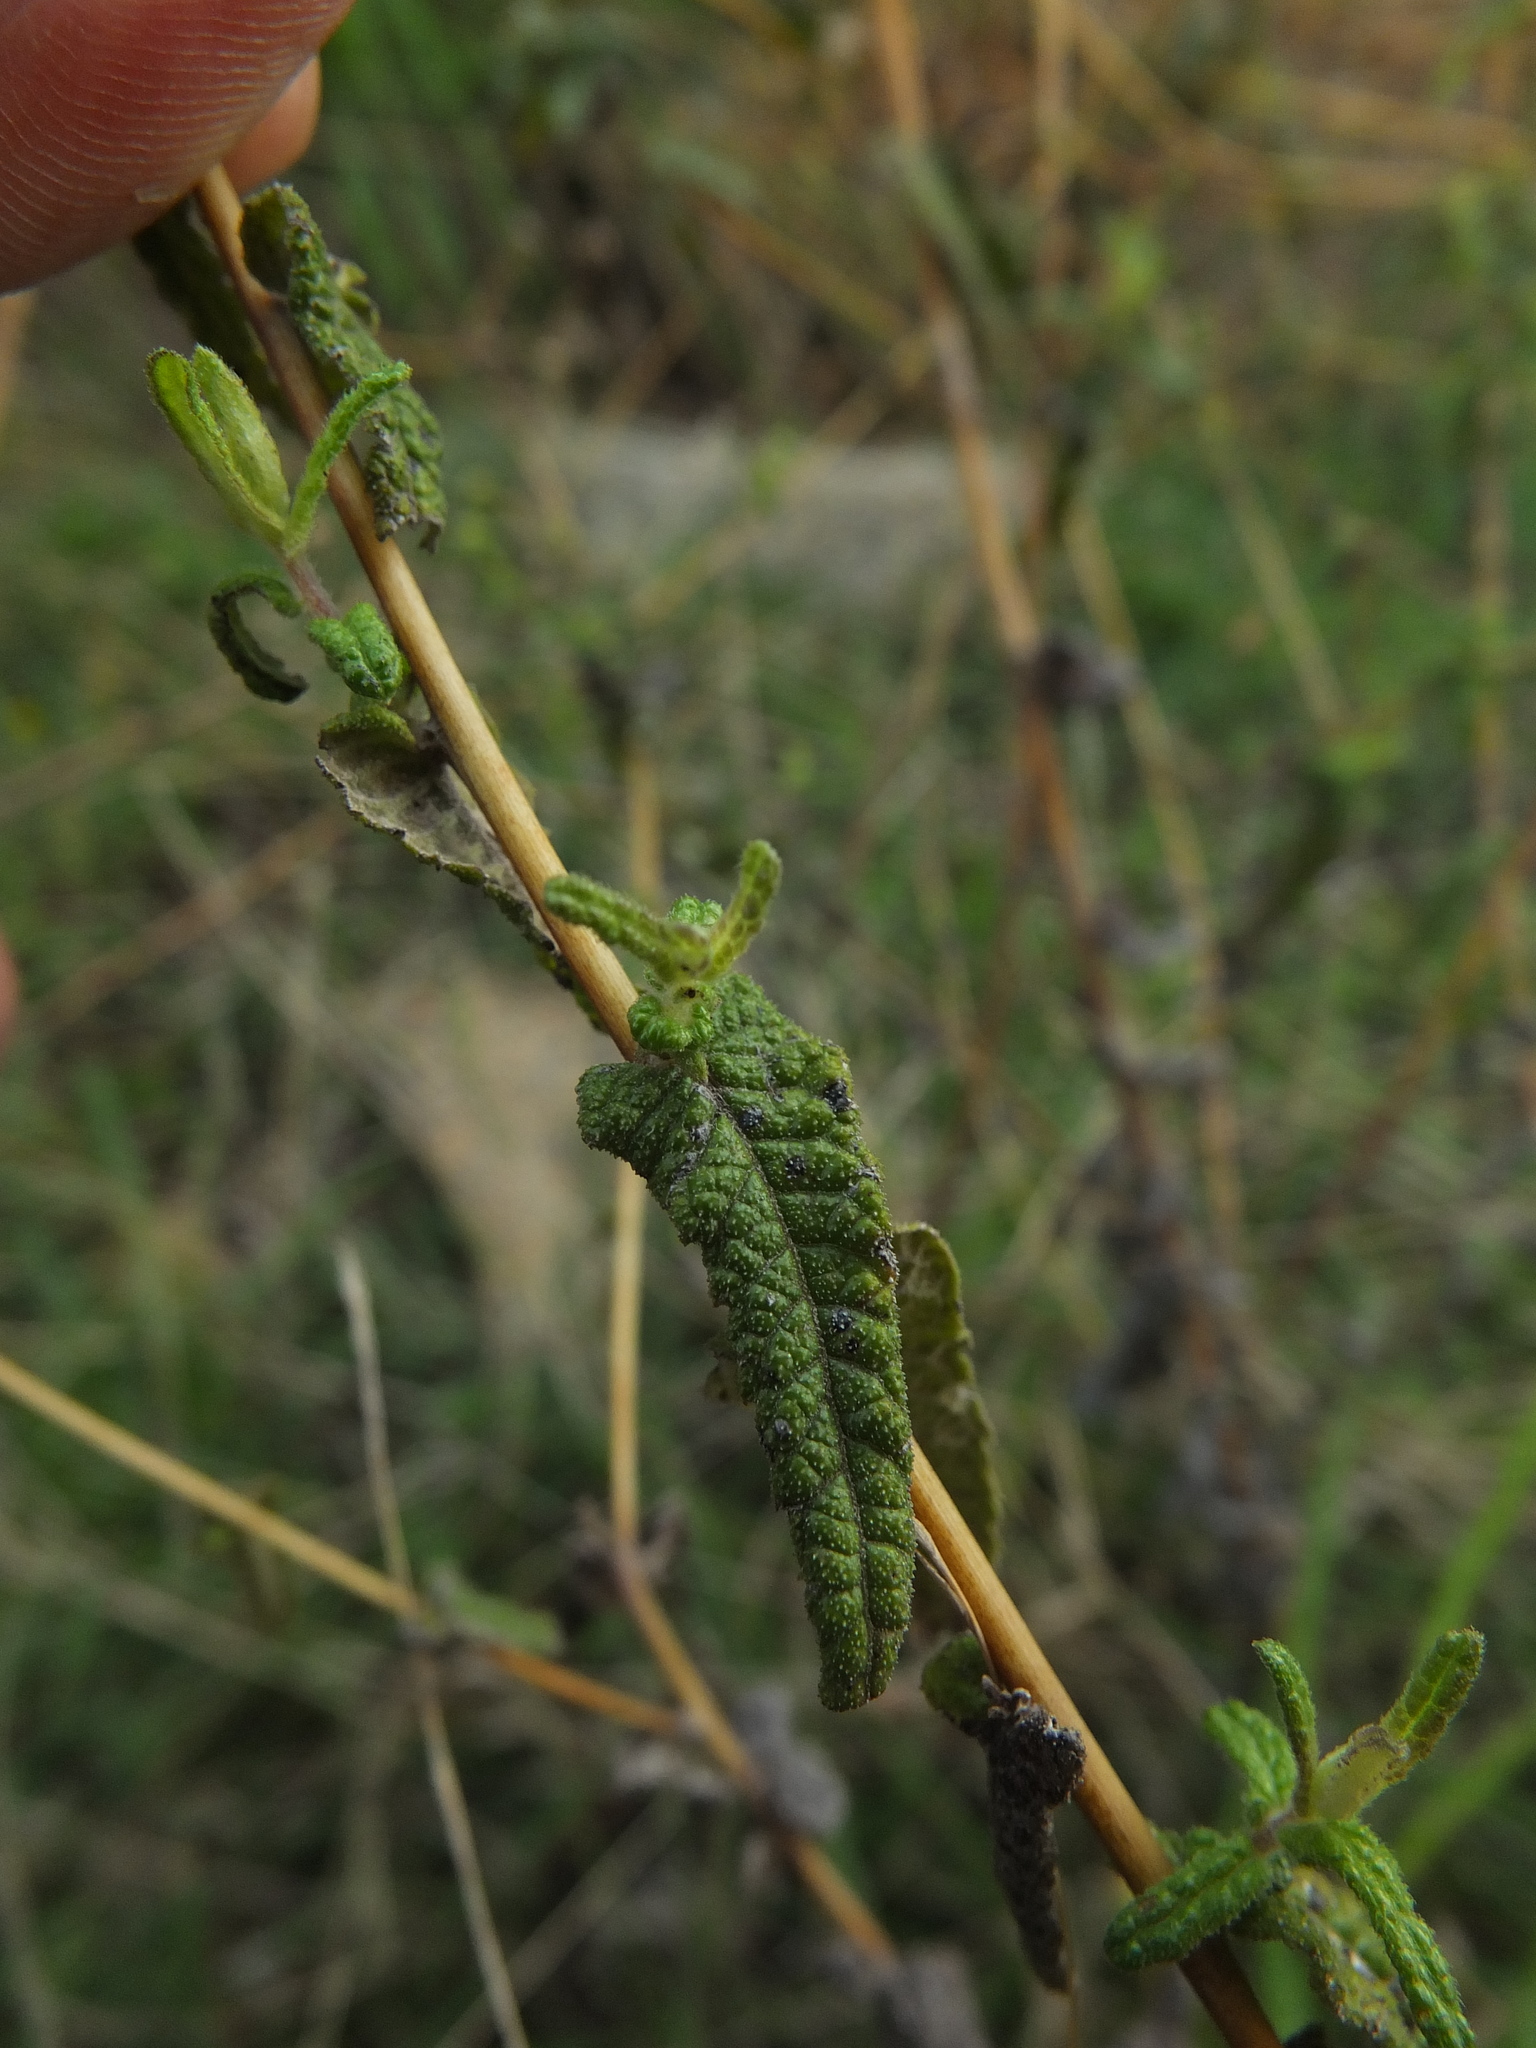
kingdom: Plantae
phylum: Tracheophyta
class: Magnoliopsida
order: Asterales
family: Asteraceae
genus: Vicoa
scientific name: Vicoa indica
